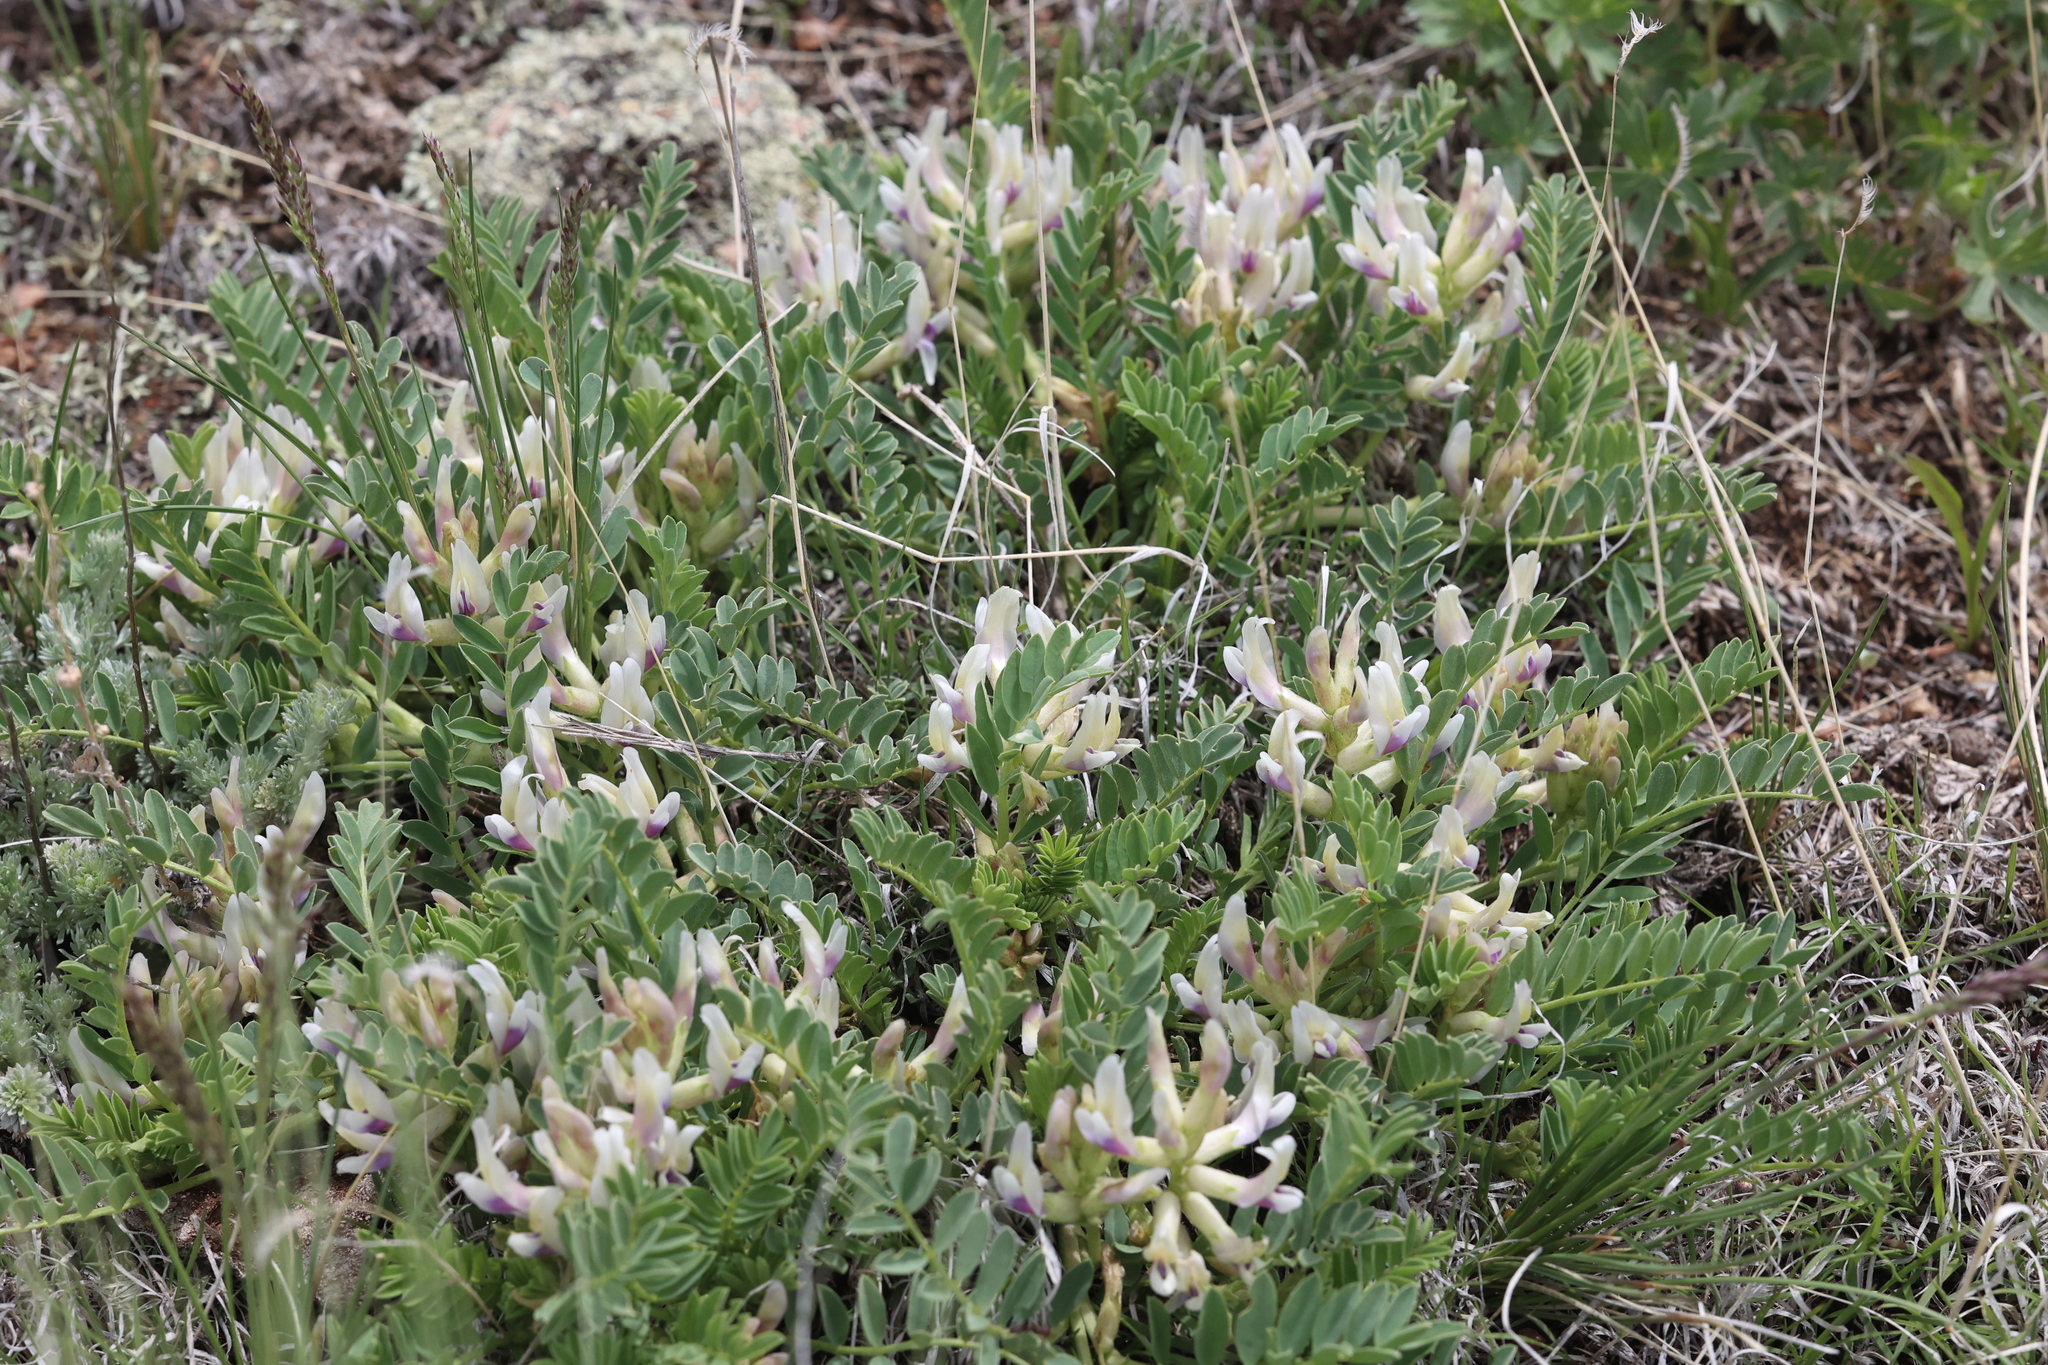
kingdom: Plantae
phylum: Tracheophyta
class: Magnoliopsida
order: Fabales
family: Fabaceae
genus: Astragalus
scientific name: Astragalus parryi
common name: Parry milk-vetch
